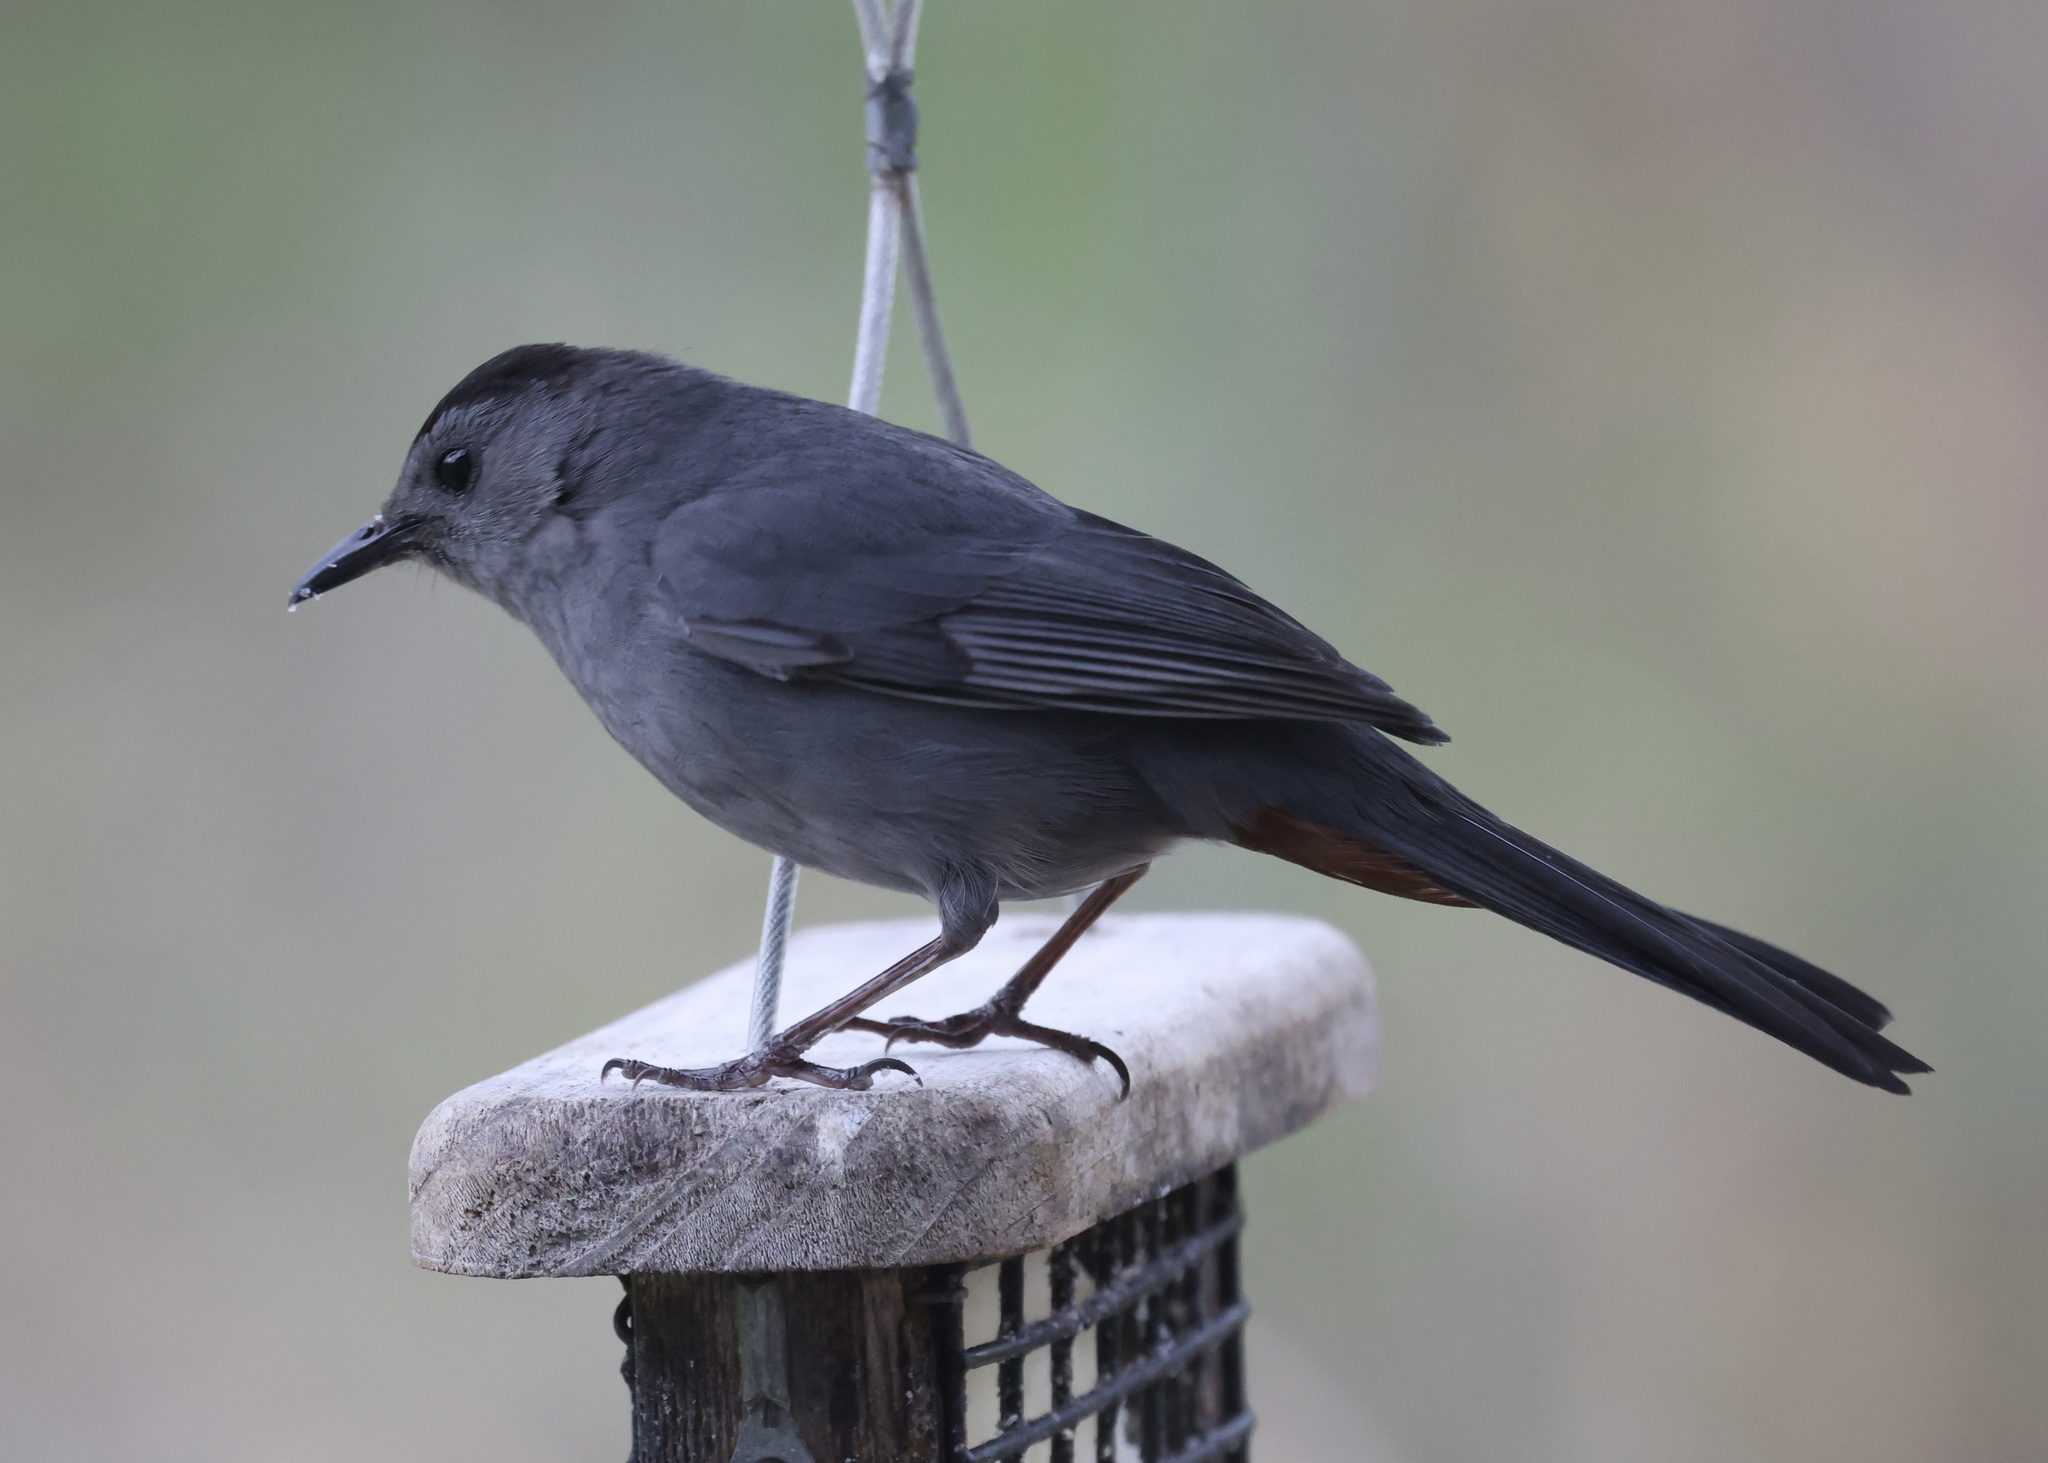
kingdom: Animalia
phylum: Chordata
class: Aves
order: Passeriformes
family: Mimidae
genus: Dumetella
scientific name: Dumetella carolinensis
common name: Gray catbird
